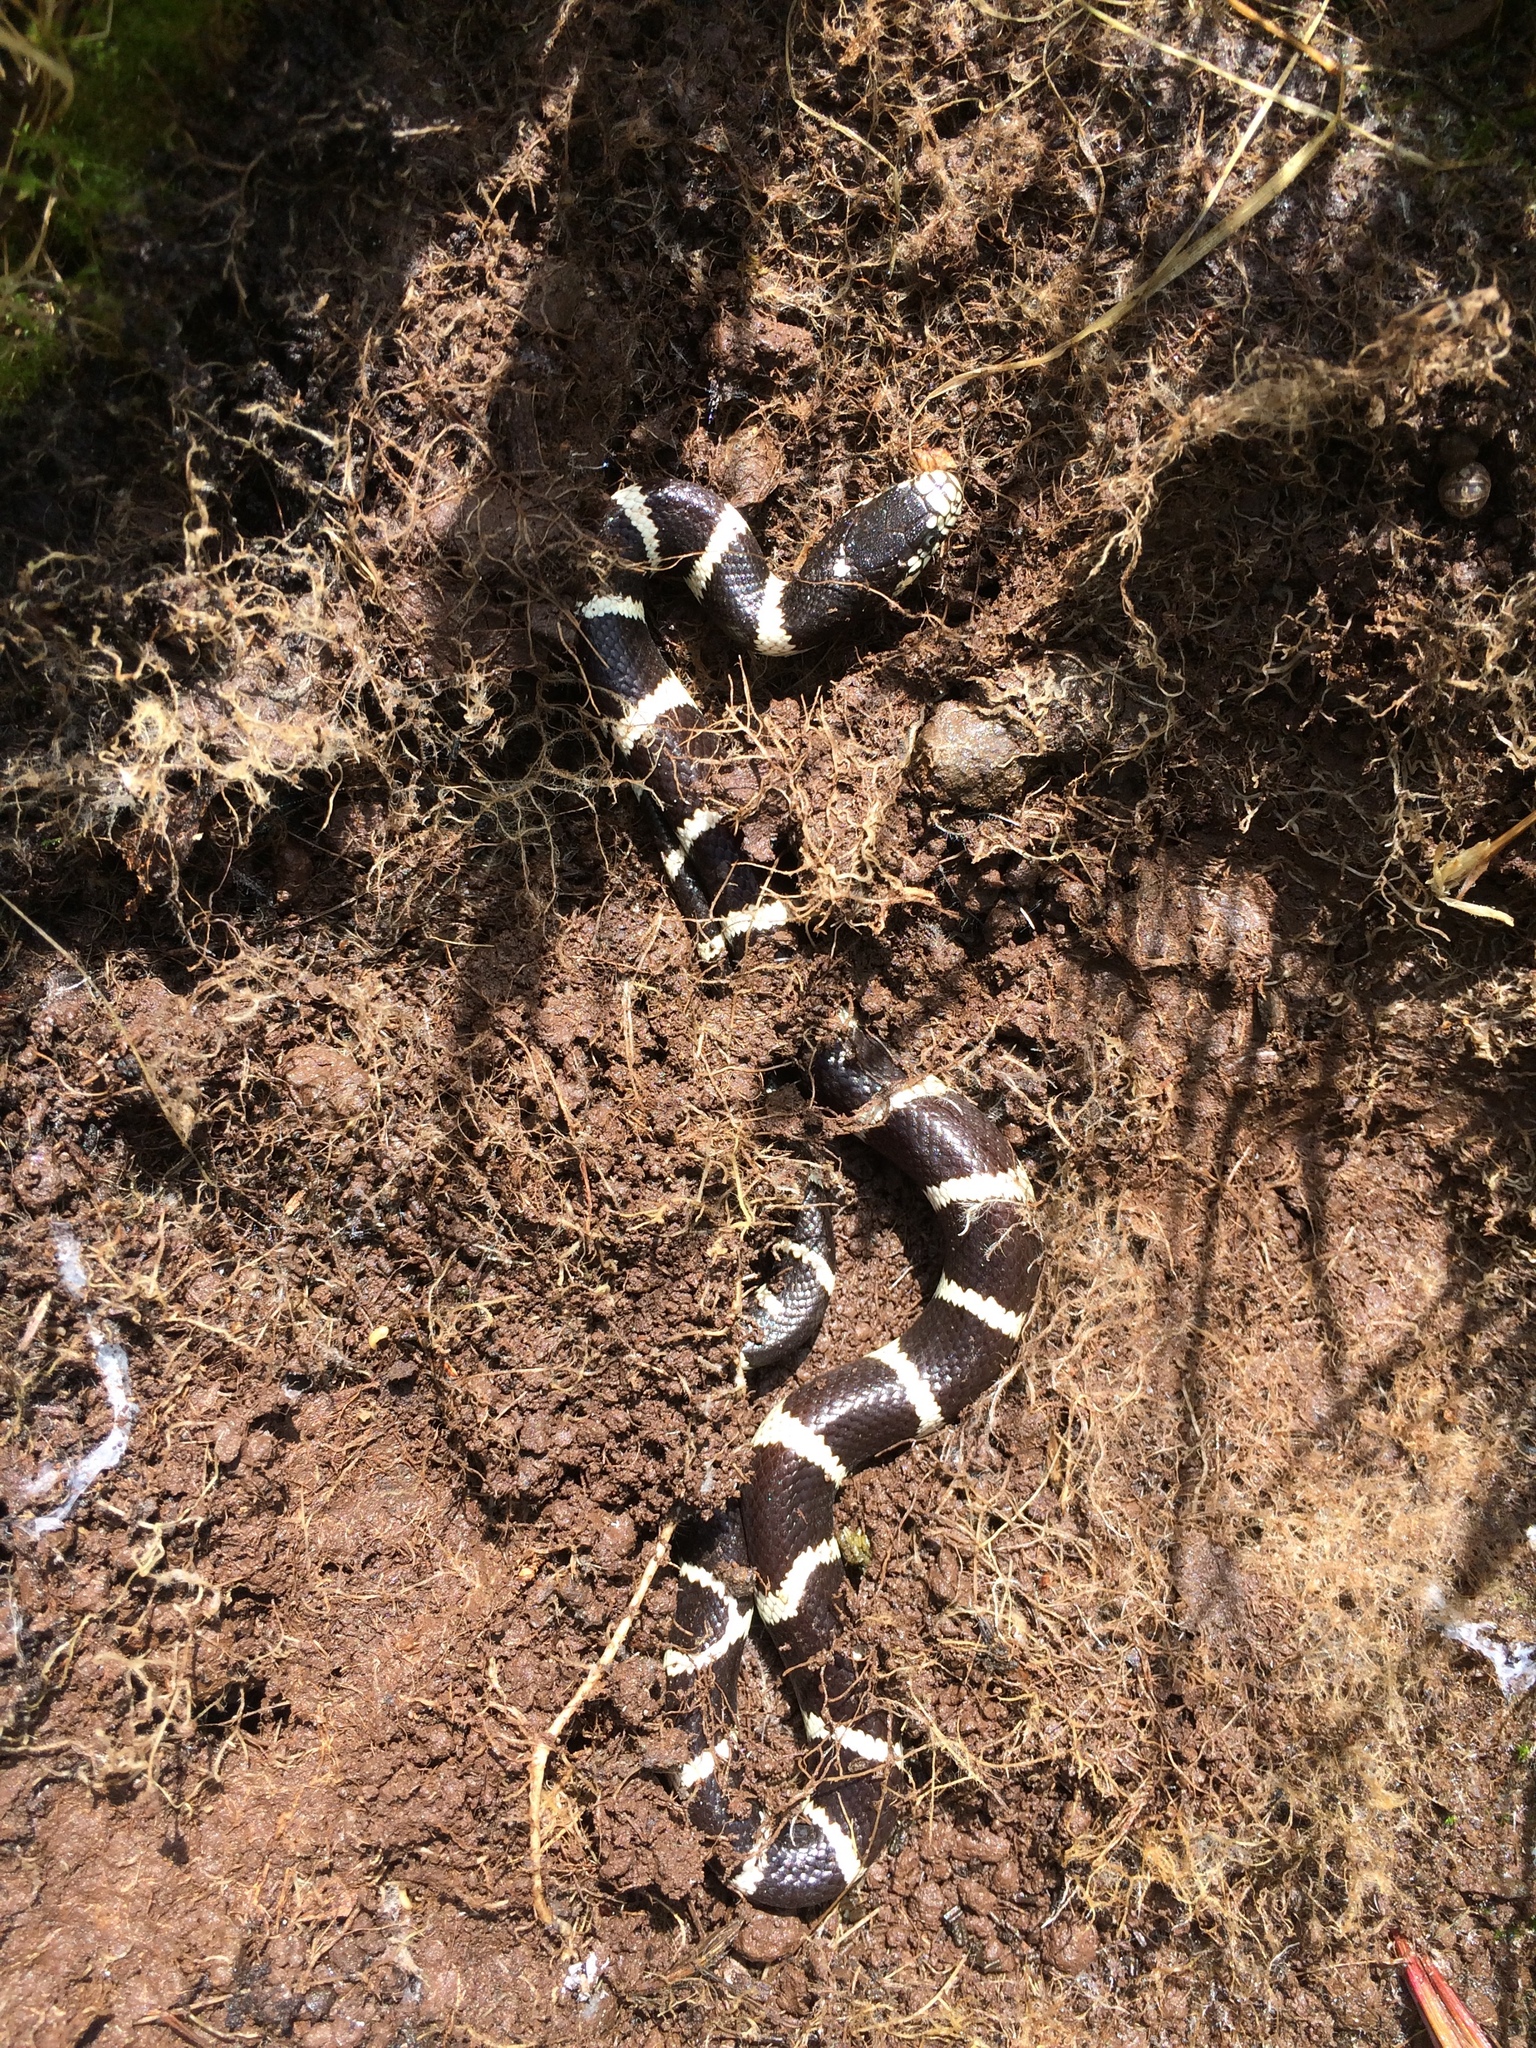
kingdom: Animalia
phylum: Chordata
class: Squamata
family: Colubridae
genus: Lampropeltis
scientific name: Lampropeltis californiae
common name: California kingsnake
